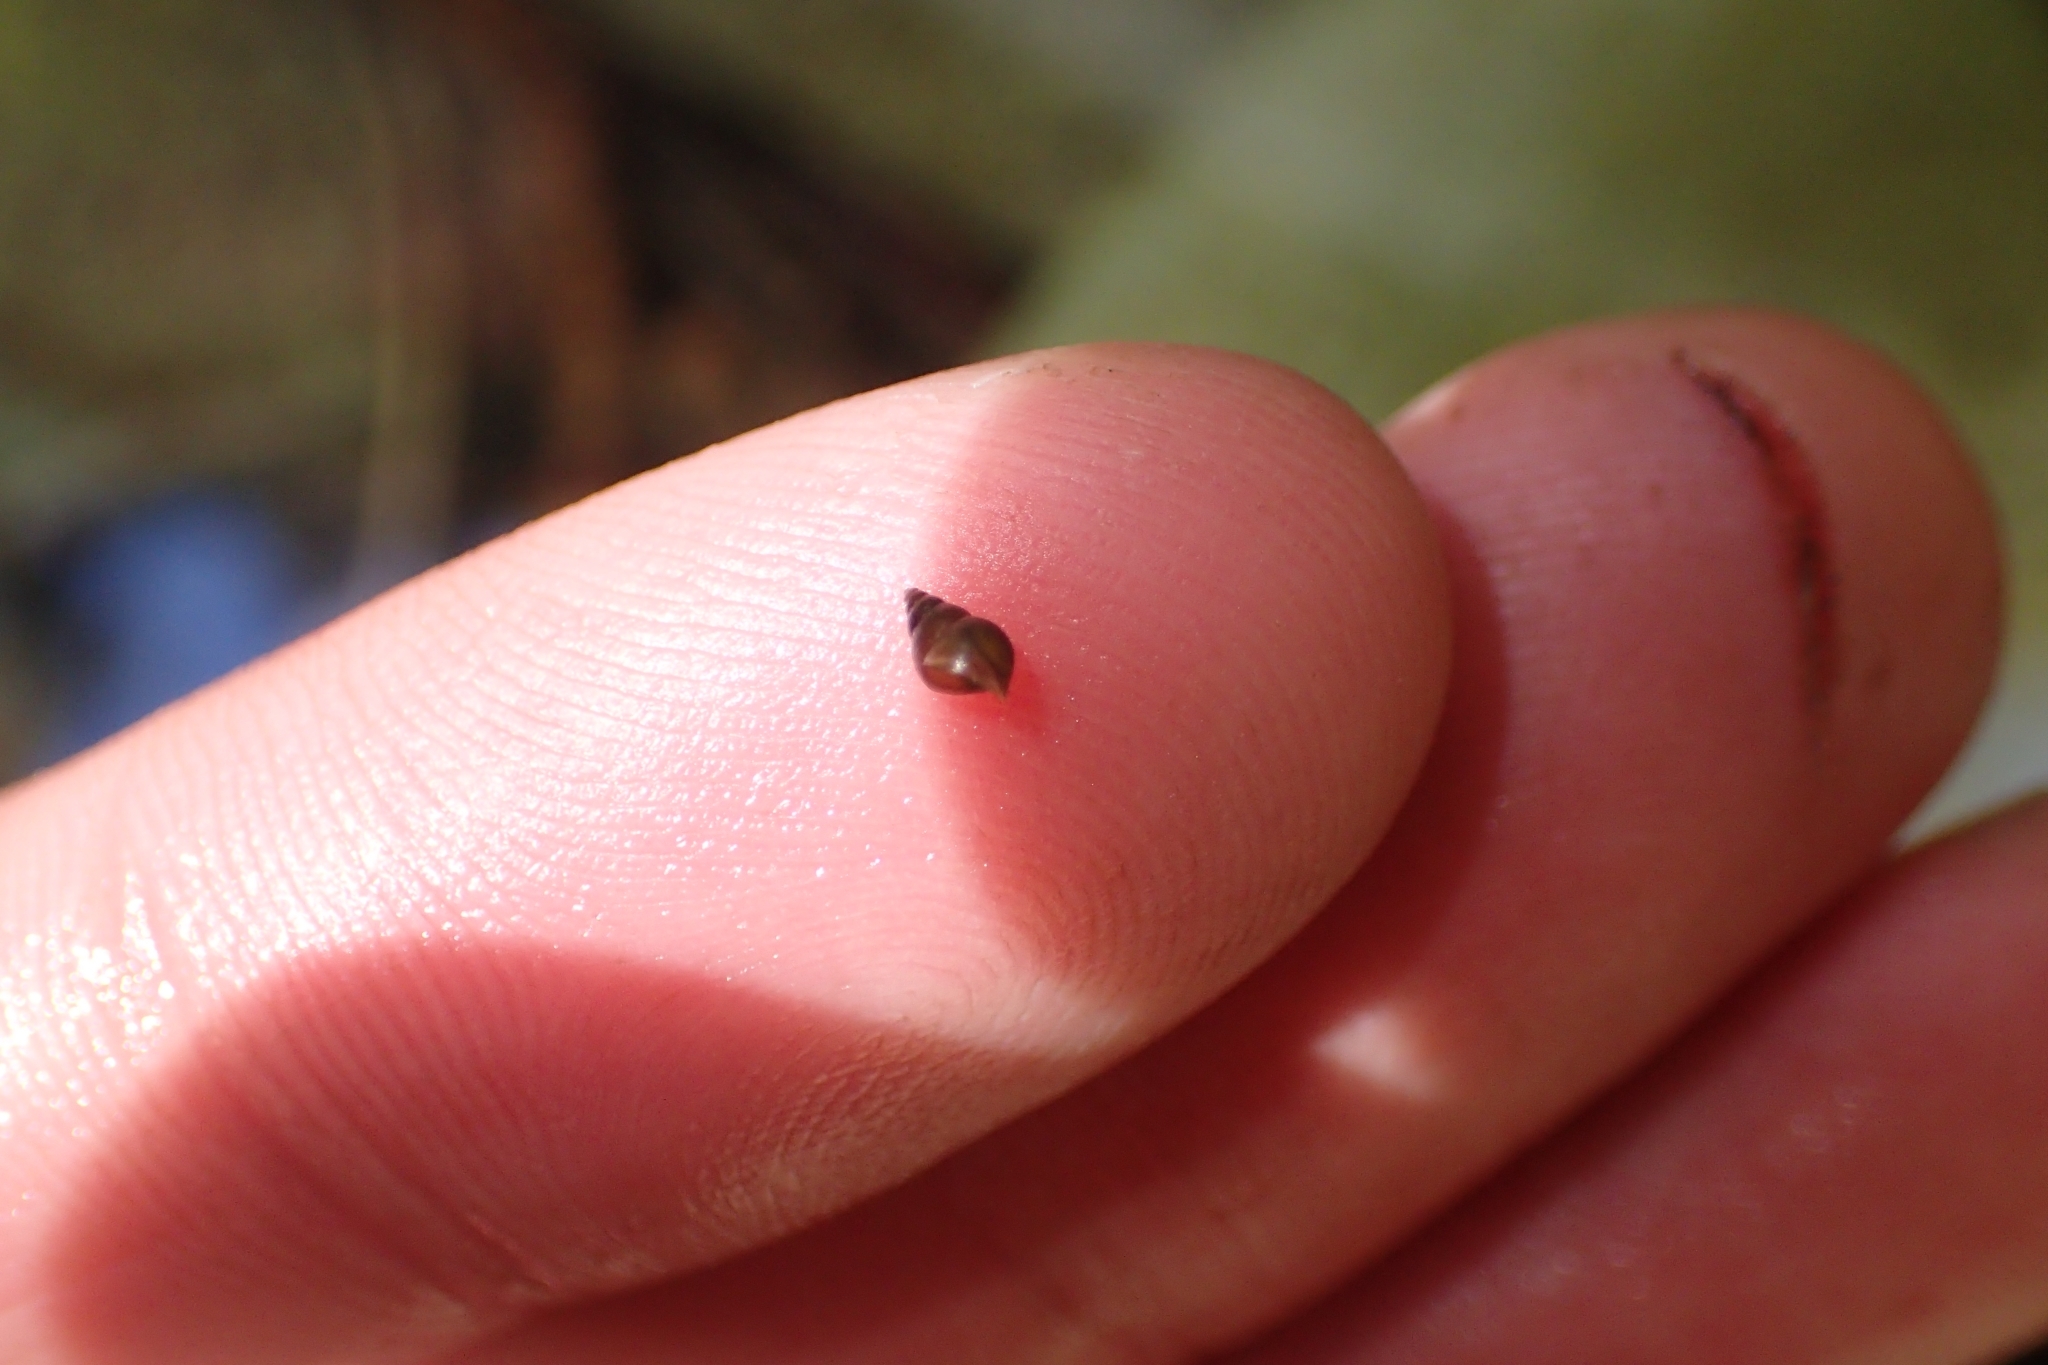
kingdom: Animalia
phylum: Mollusca
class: Gastropoda
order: Littorinimorpha
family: Tateidae
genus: Potamopyrgus
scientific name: Potamopyrgus antipodarum
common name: Jenkins' spire snail
